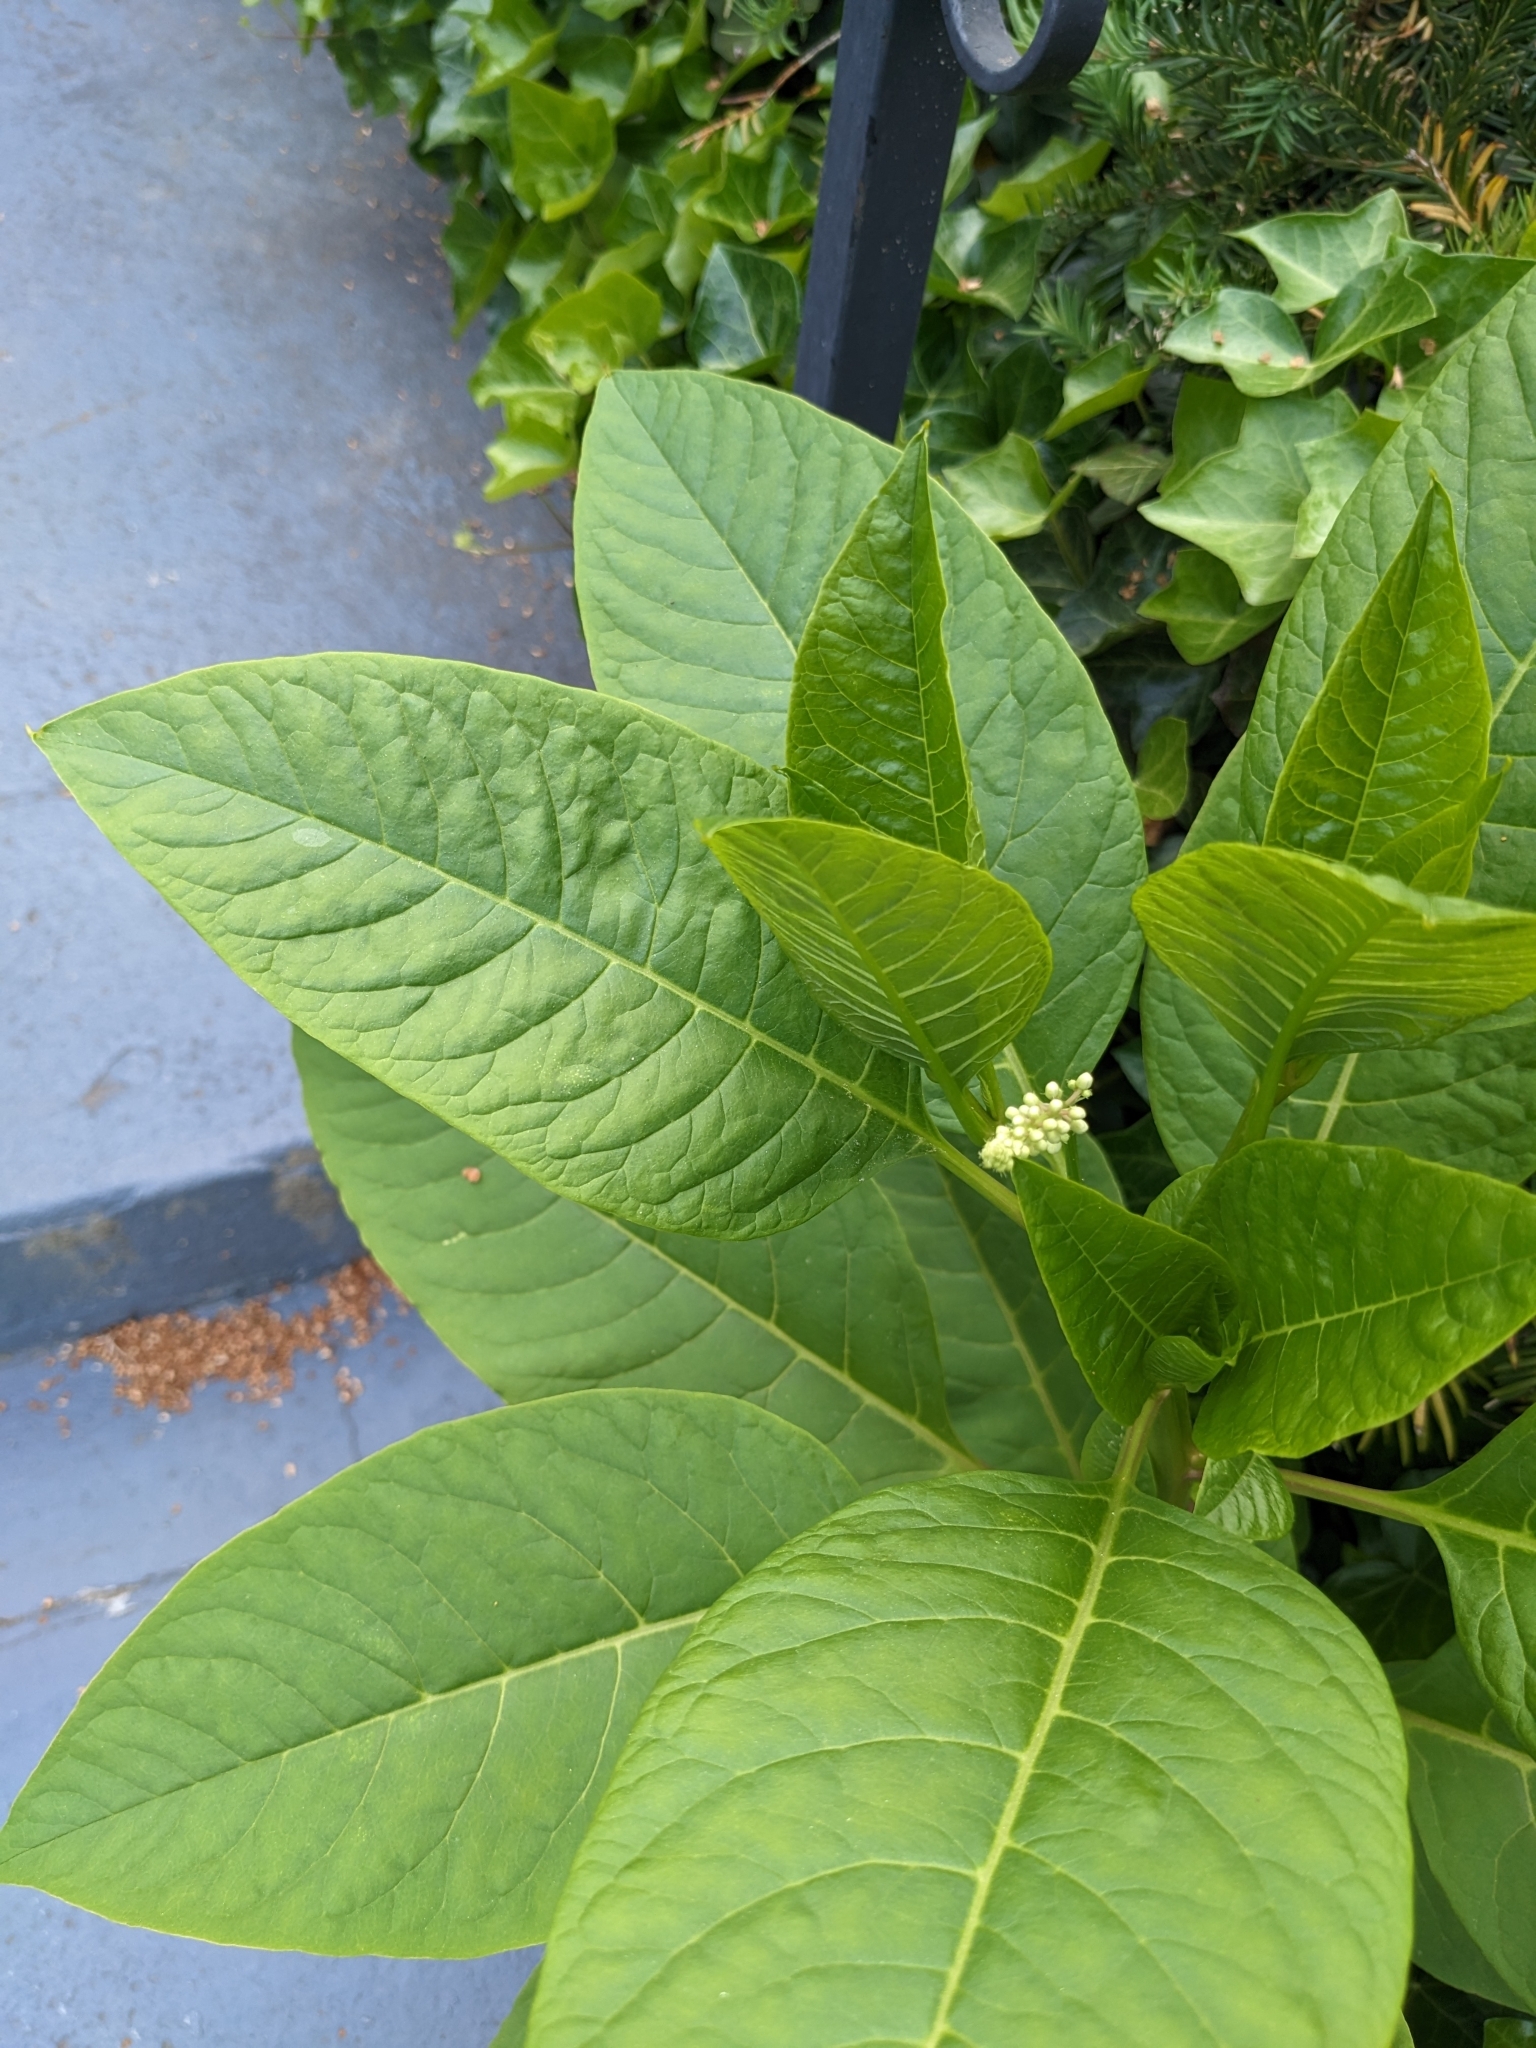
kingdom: Plantae
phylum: Tracheophyta
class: Magnoliopsida
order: Caryophyllales
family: Phytolaccaceae
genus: Phytolacca
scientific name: Phytolacca americana
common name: American pokeweed
